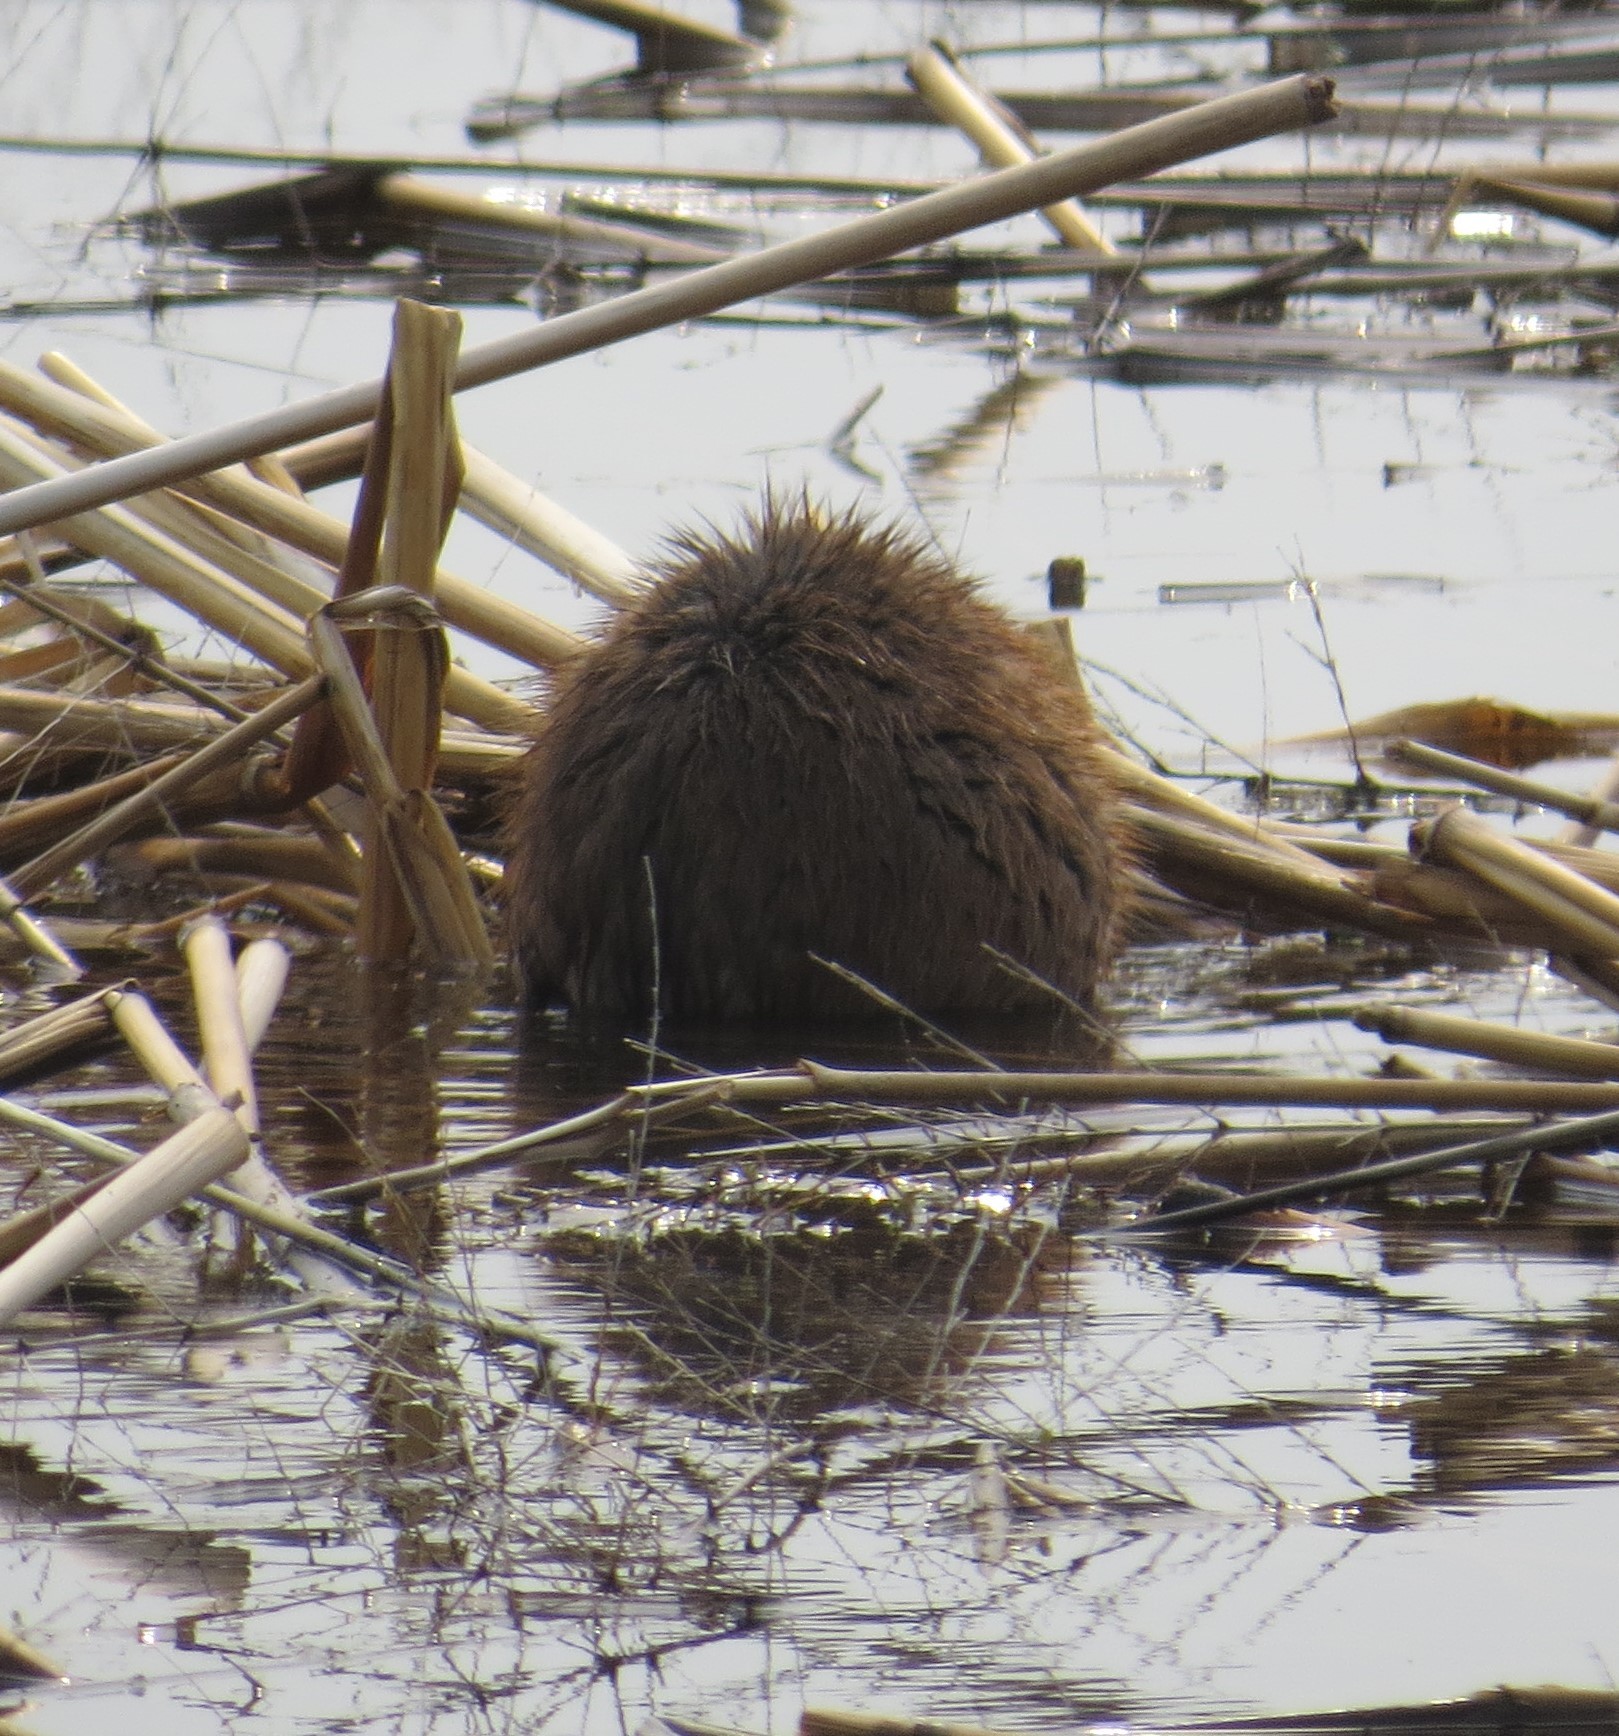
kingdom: Animalia
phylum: Chordata
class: Mammalia
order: Rodentia
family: Cricetidae
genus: Ondatra
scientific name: Ondatra zibethicus
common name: Muskrat
